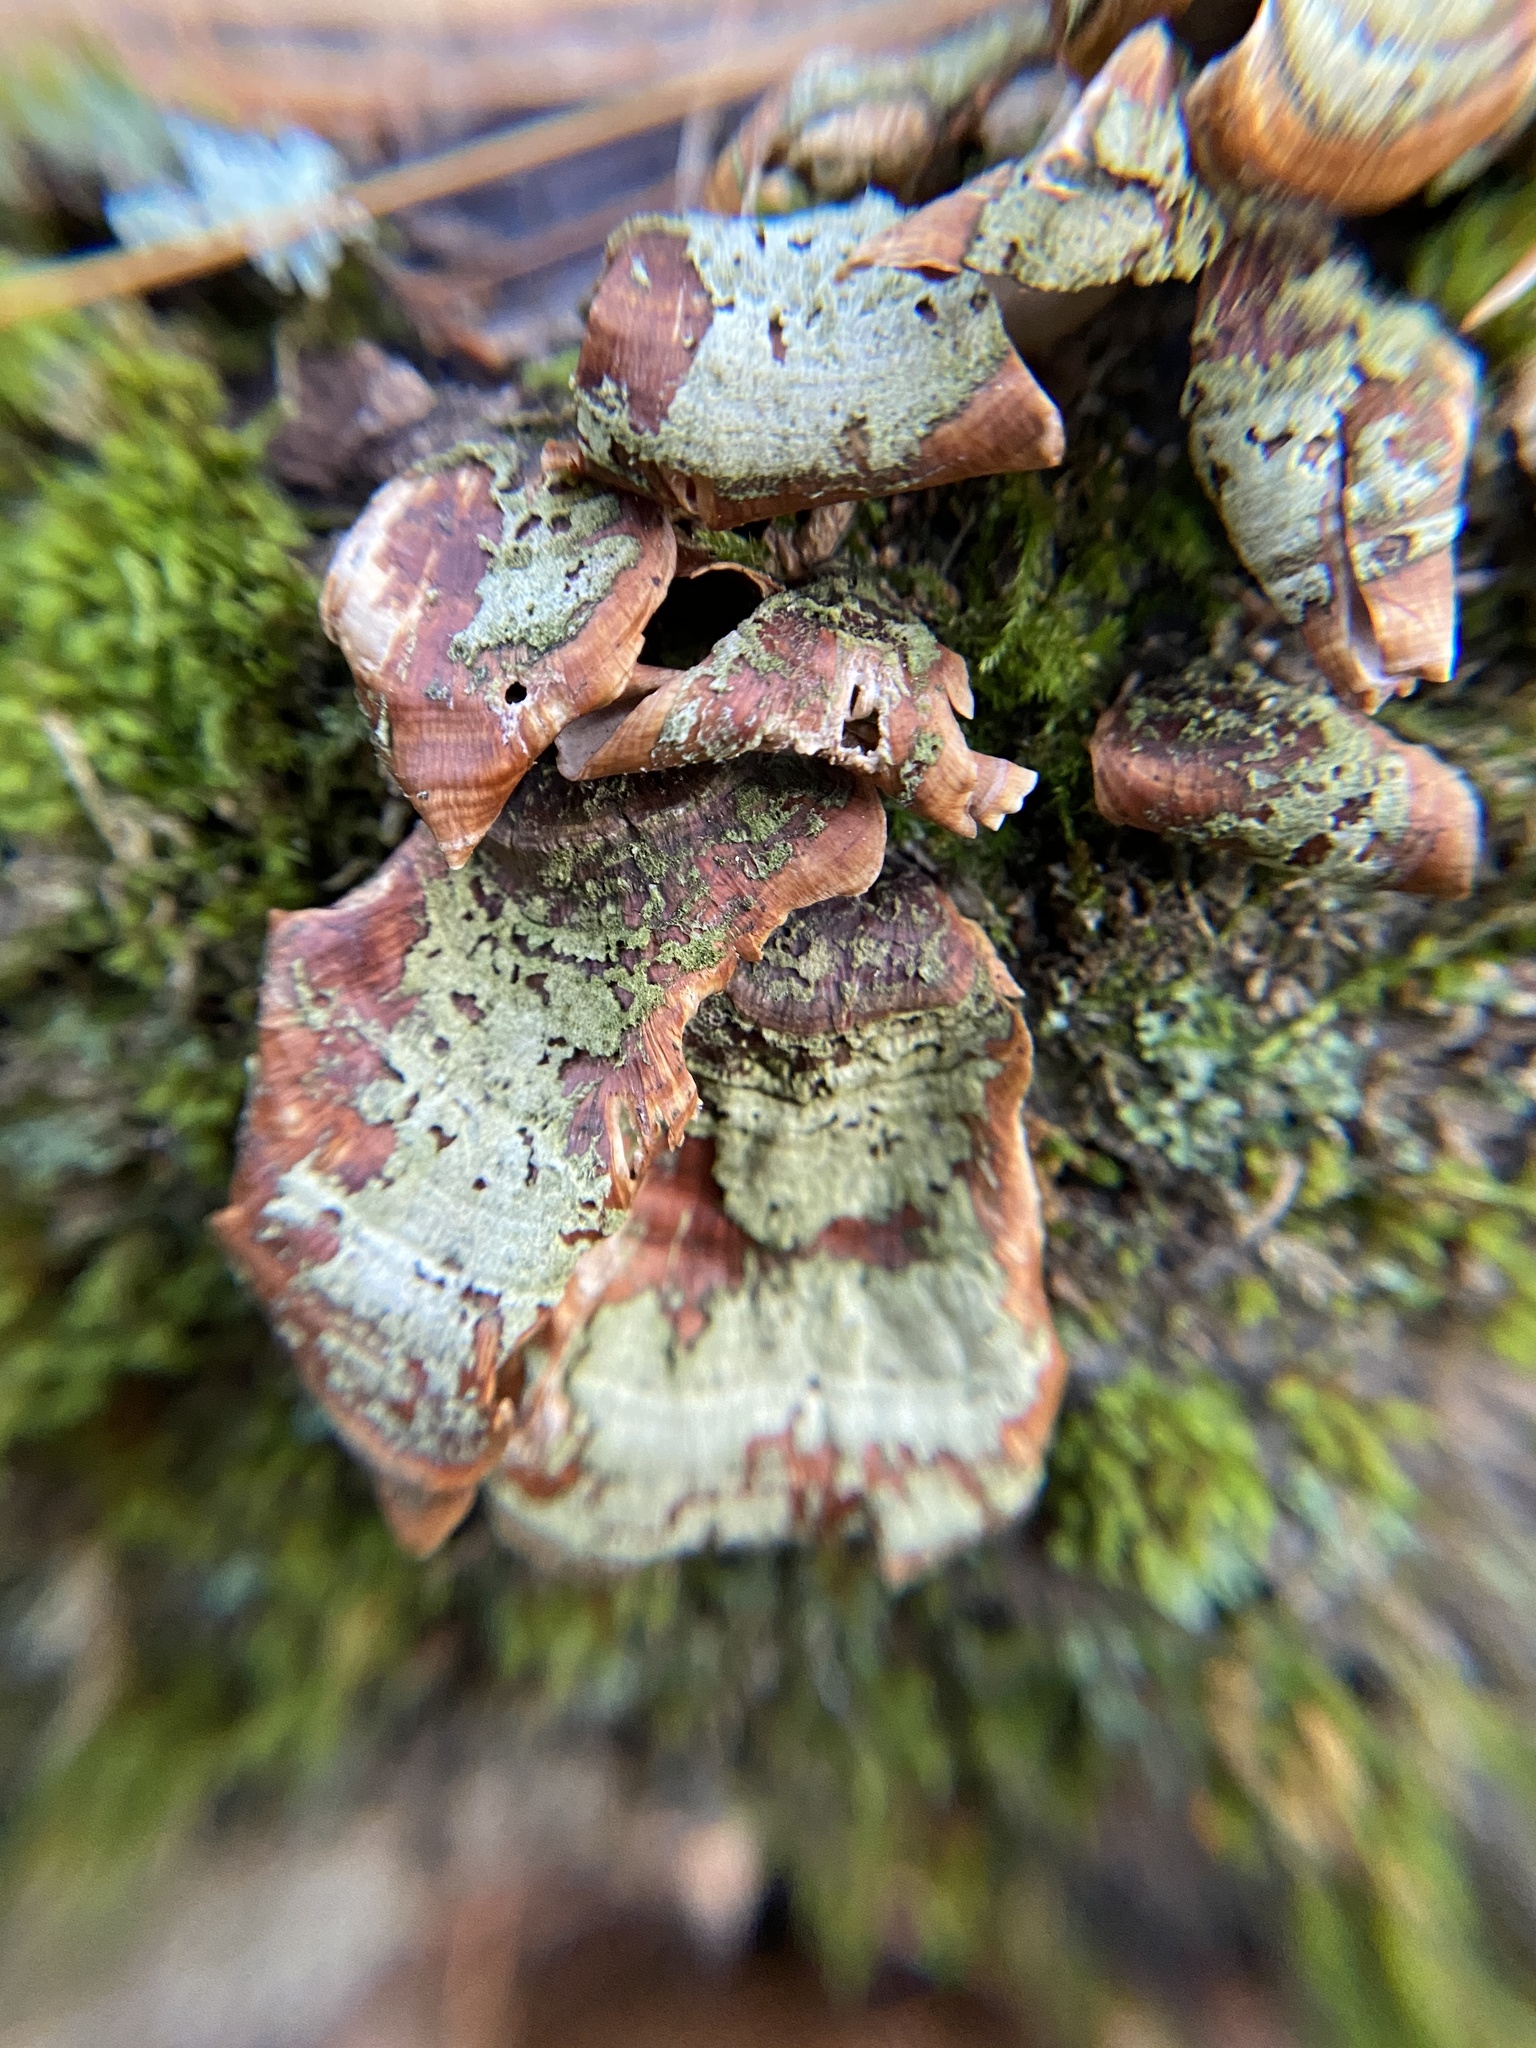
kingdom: Fungi
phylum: Basidiomycota
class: Agaricomycetes
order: Russulales
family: Stereaceae
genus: Stereum
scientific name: Stereum ostrea
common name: False turkeytail
